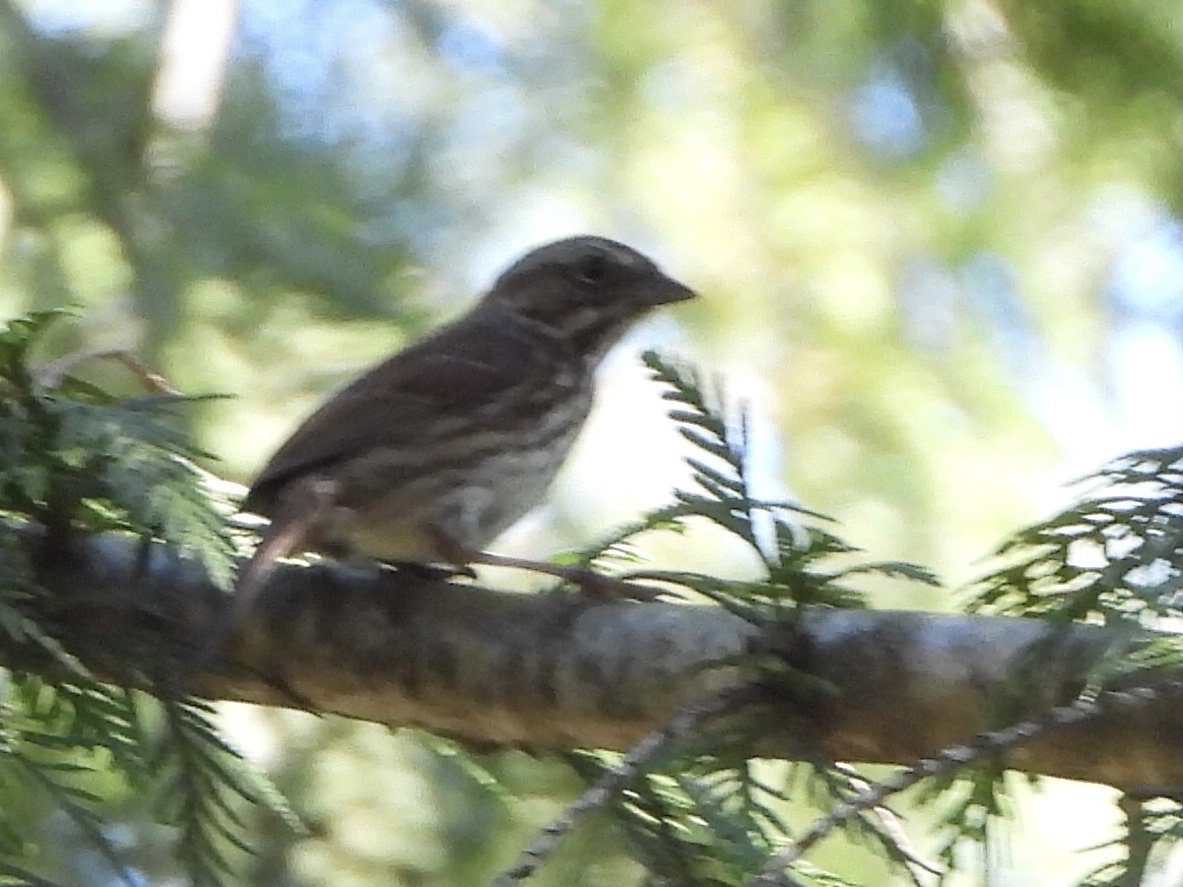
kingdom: Animalia
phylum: Chordata
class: Aves
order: Passeriformes
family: Passerellidae
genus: Melospiza
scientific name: Melospiza melodia
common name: Song sparrow
